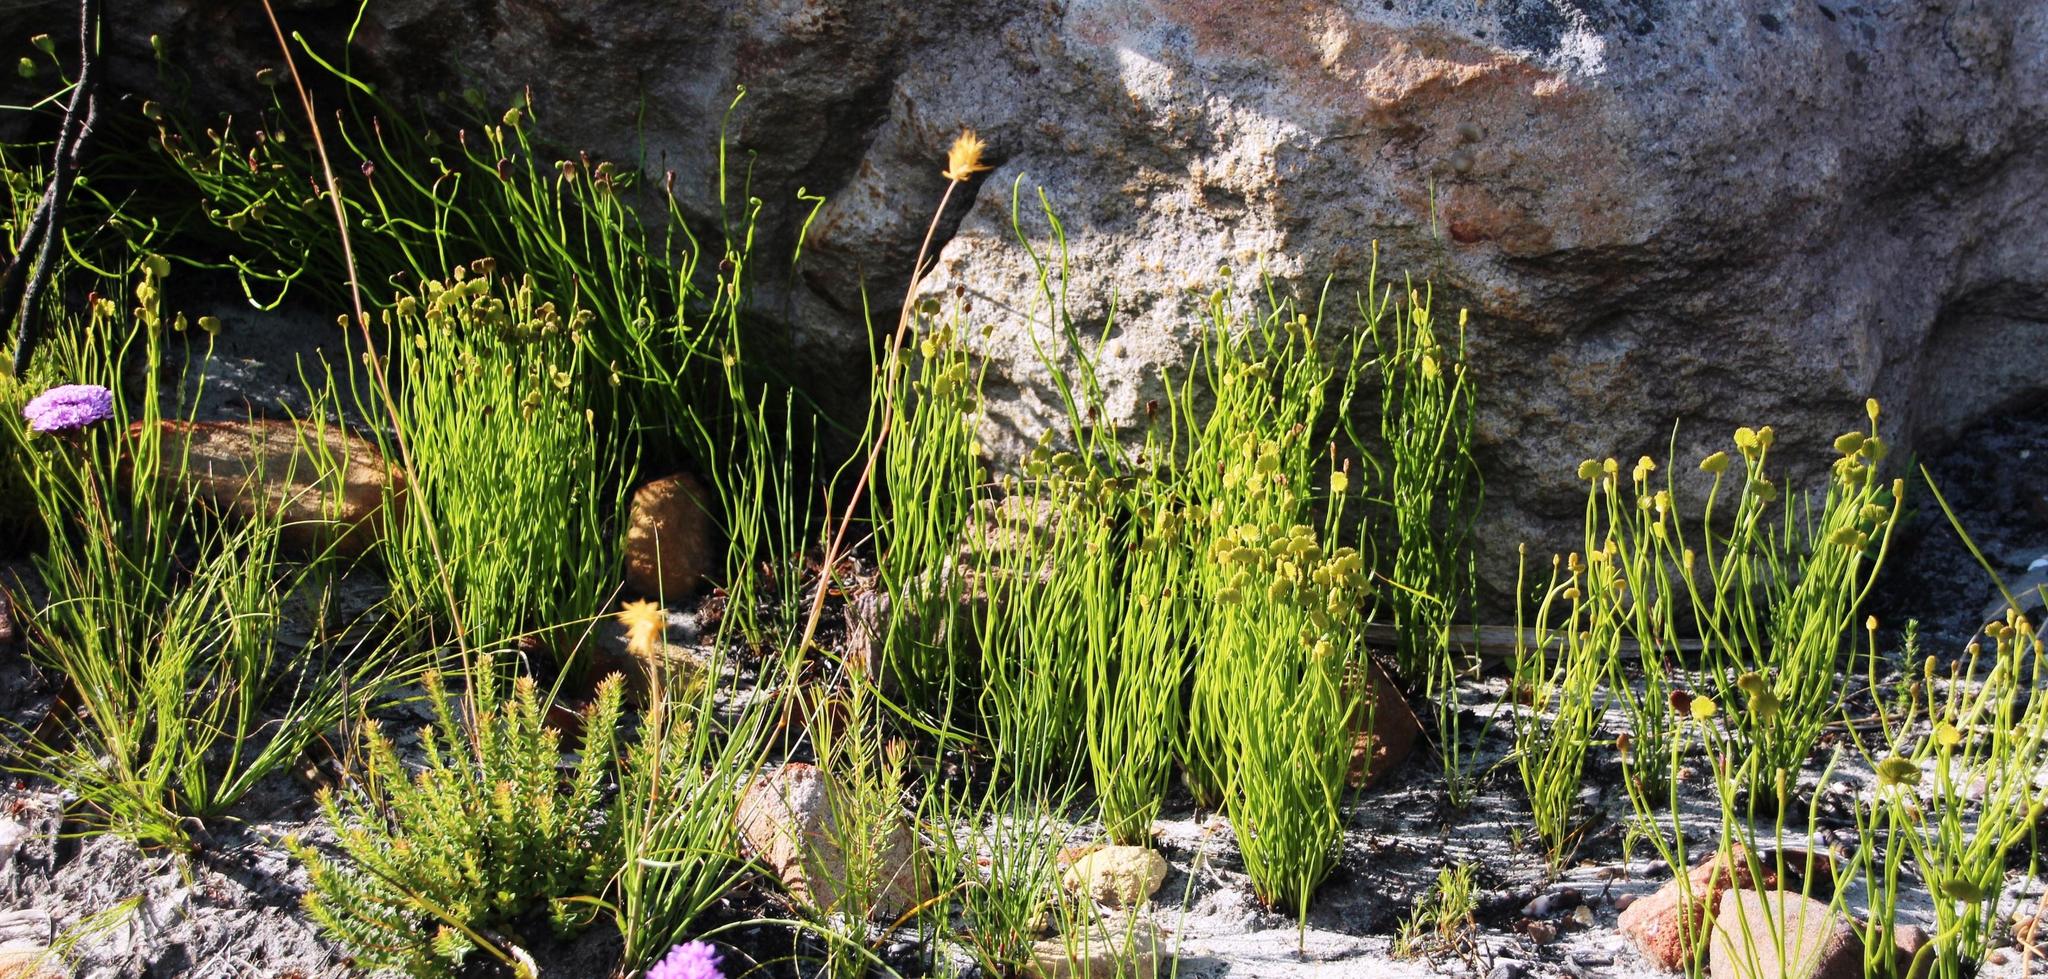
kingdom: Plantae
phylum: Tracheophyta
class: Polypodiopsida
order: Schizaeales
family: Schizaeaceae
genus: Schizaea
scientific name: Schizaea pectinata
